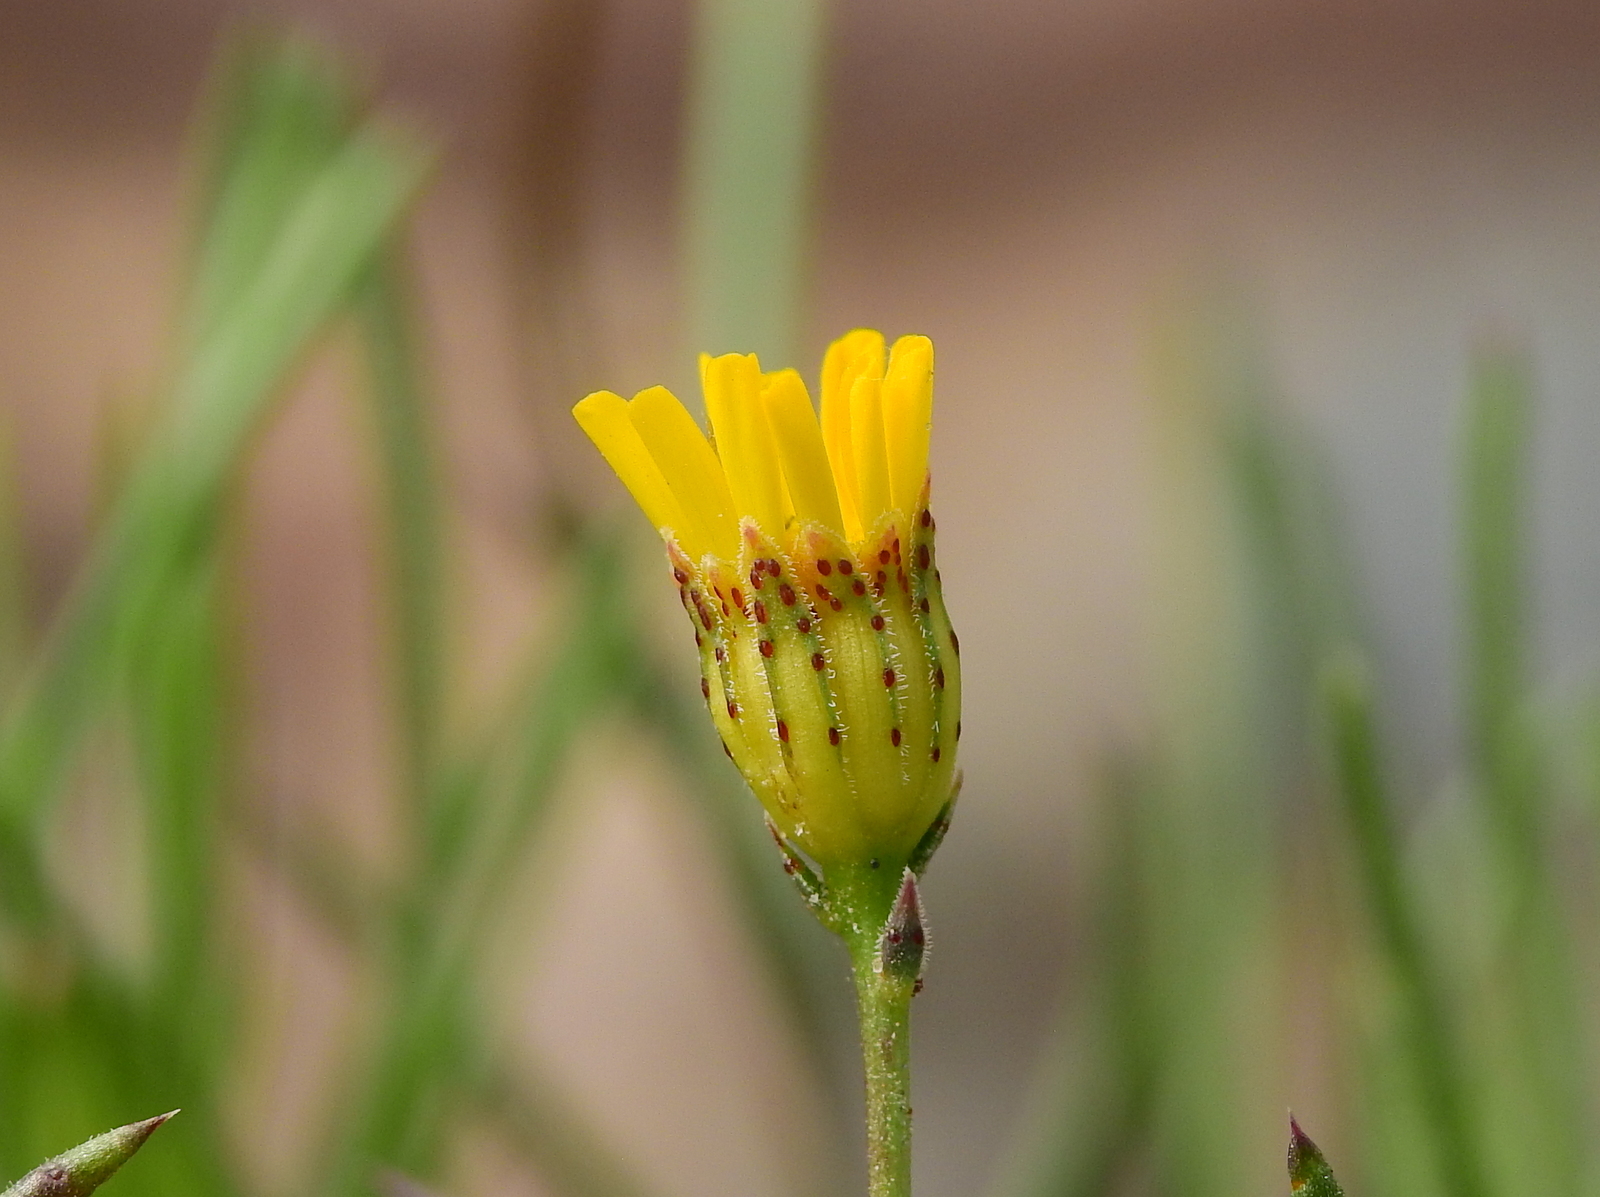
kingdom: Plantae
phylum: Tracheophyta
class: Magnoliopsida
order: Asterales
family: Asteraceae
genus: Thymophylla
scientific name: Thymophylla pentachaeta
